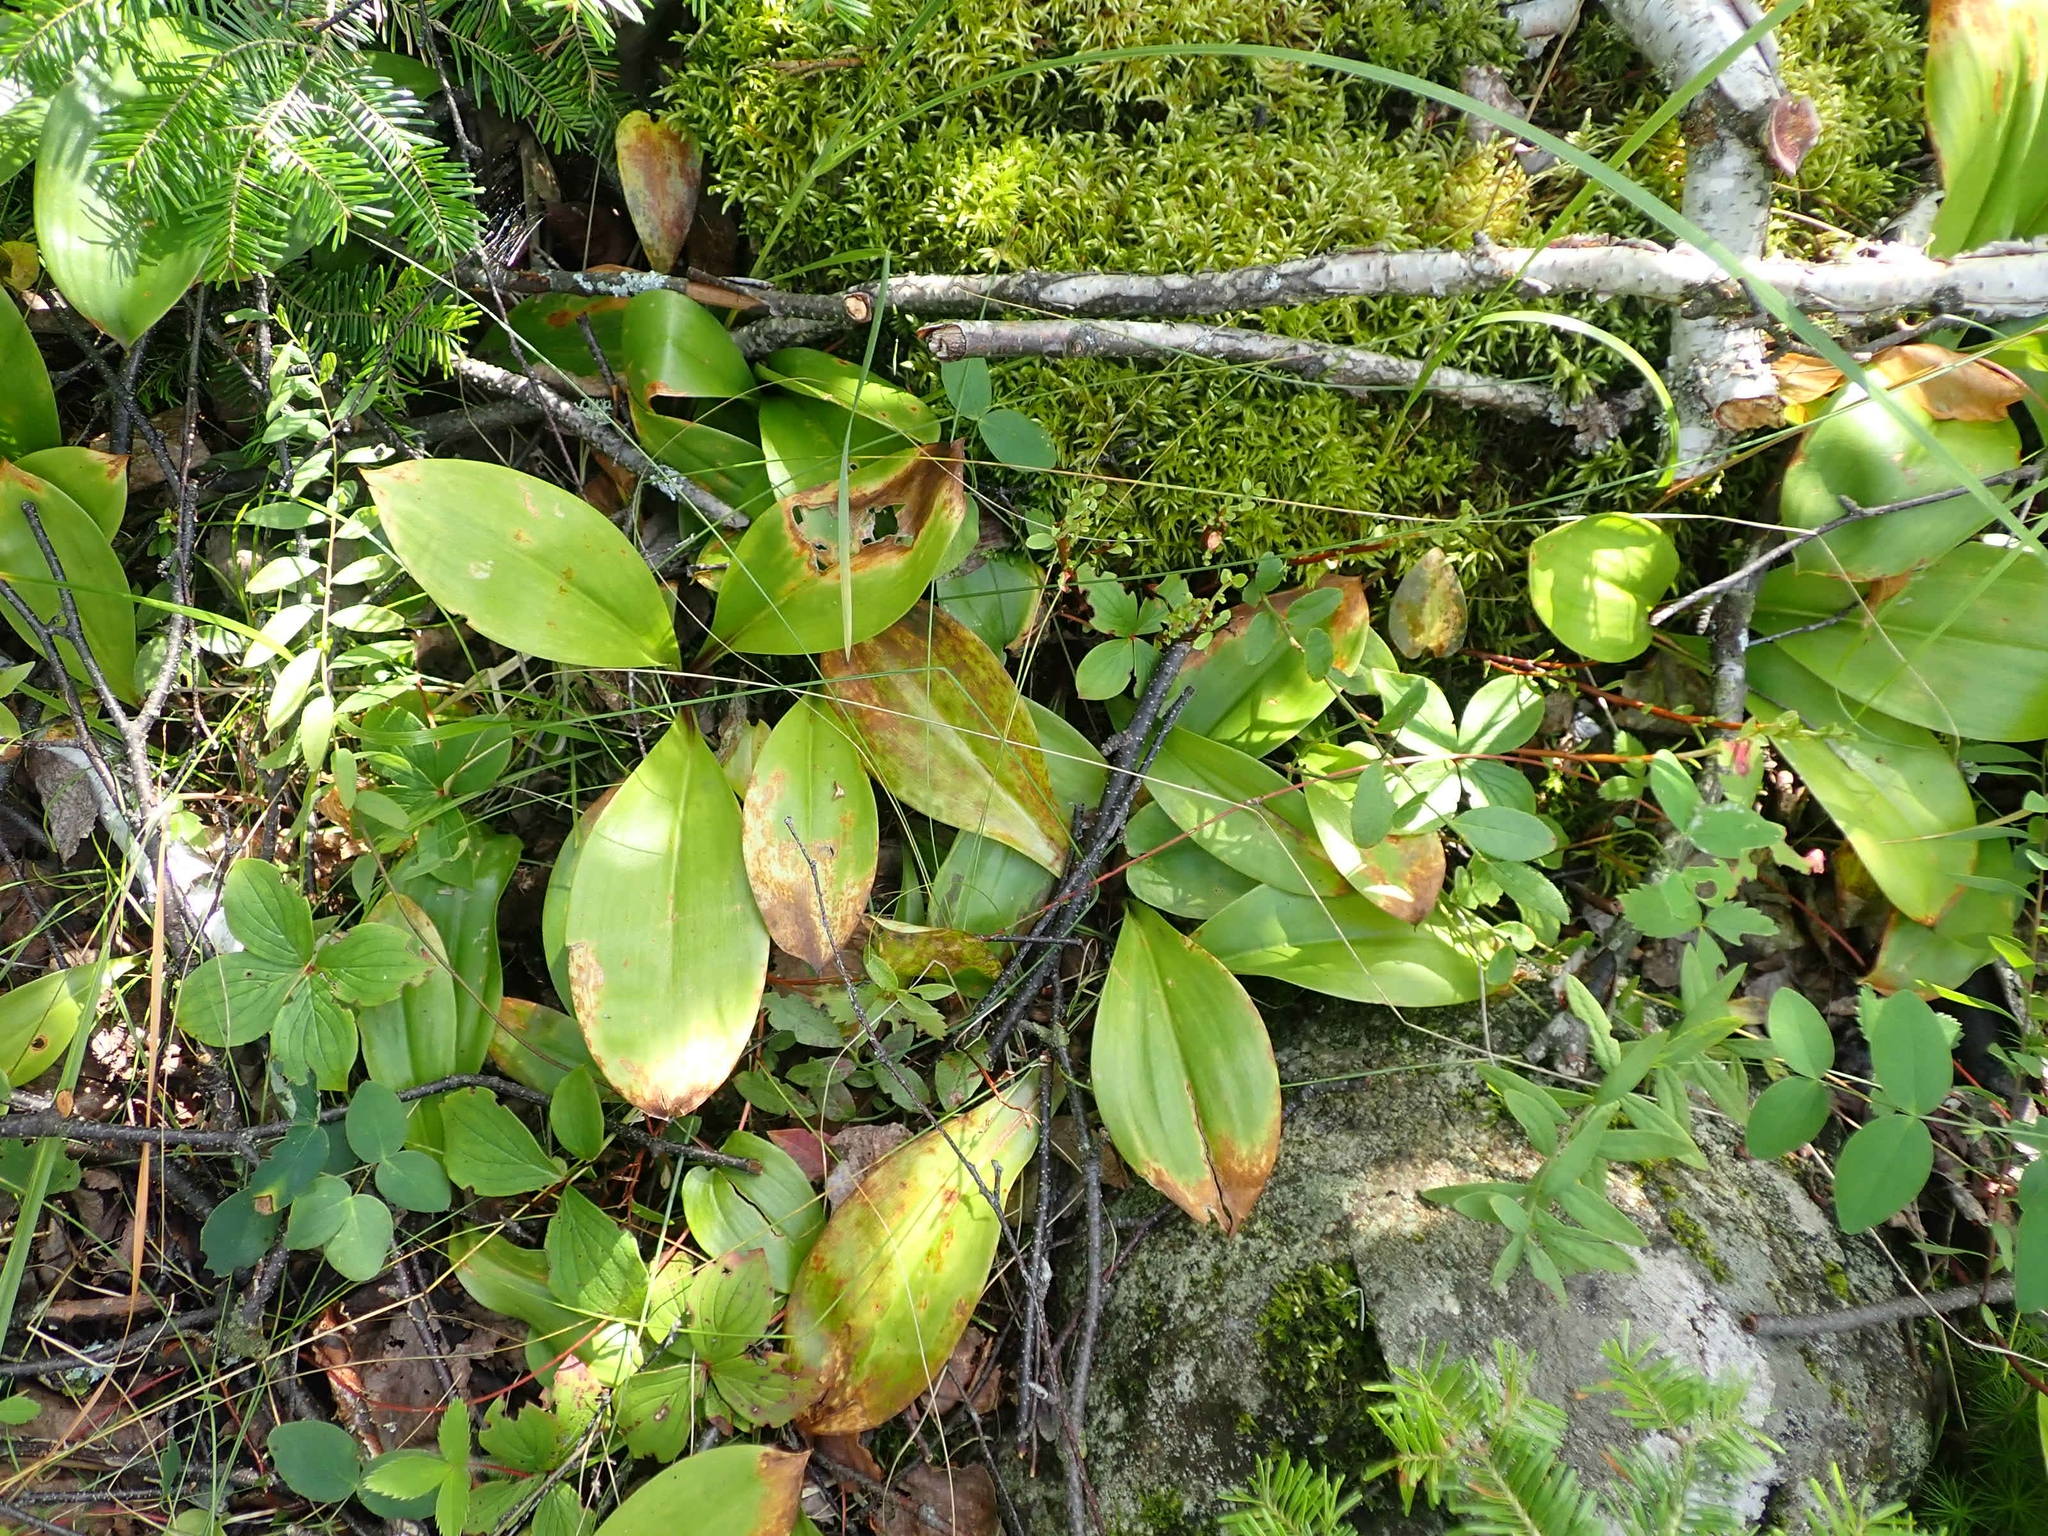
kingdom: Plantae
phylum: Tracheophyta
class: Liliopsida
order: Liliales
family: Liliaceae
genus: Clintonia
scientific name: Clintonia borealis
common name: Yellow clintonia
